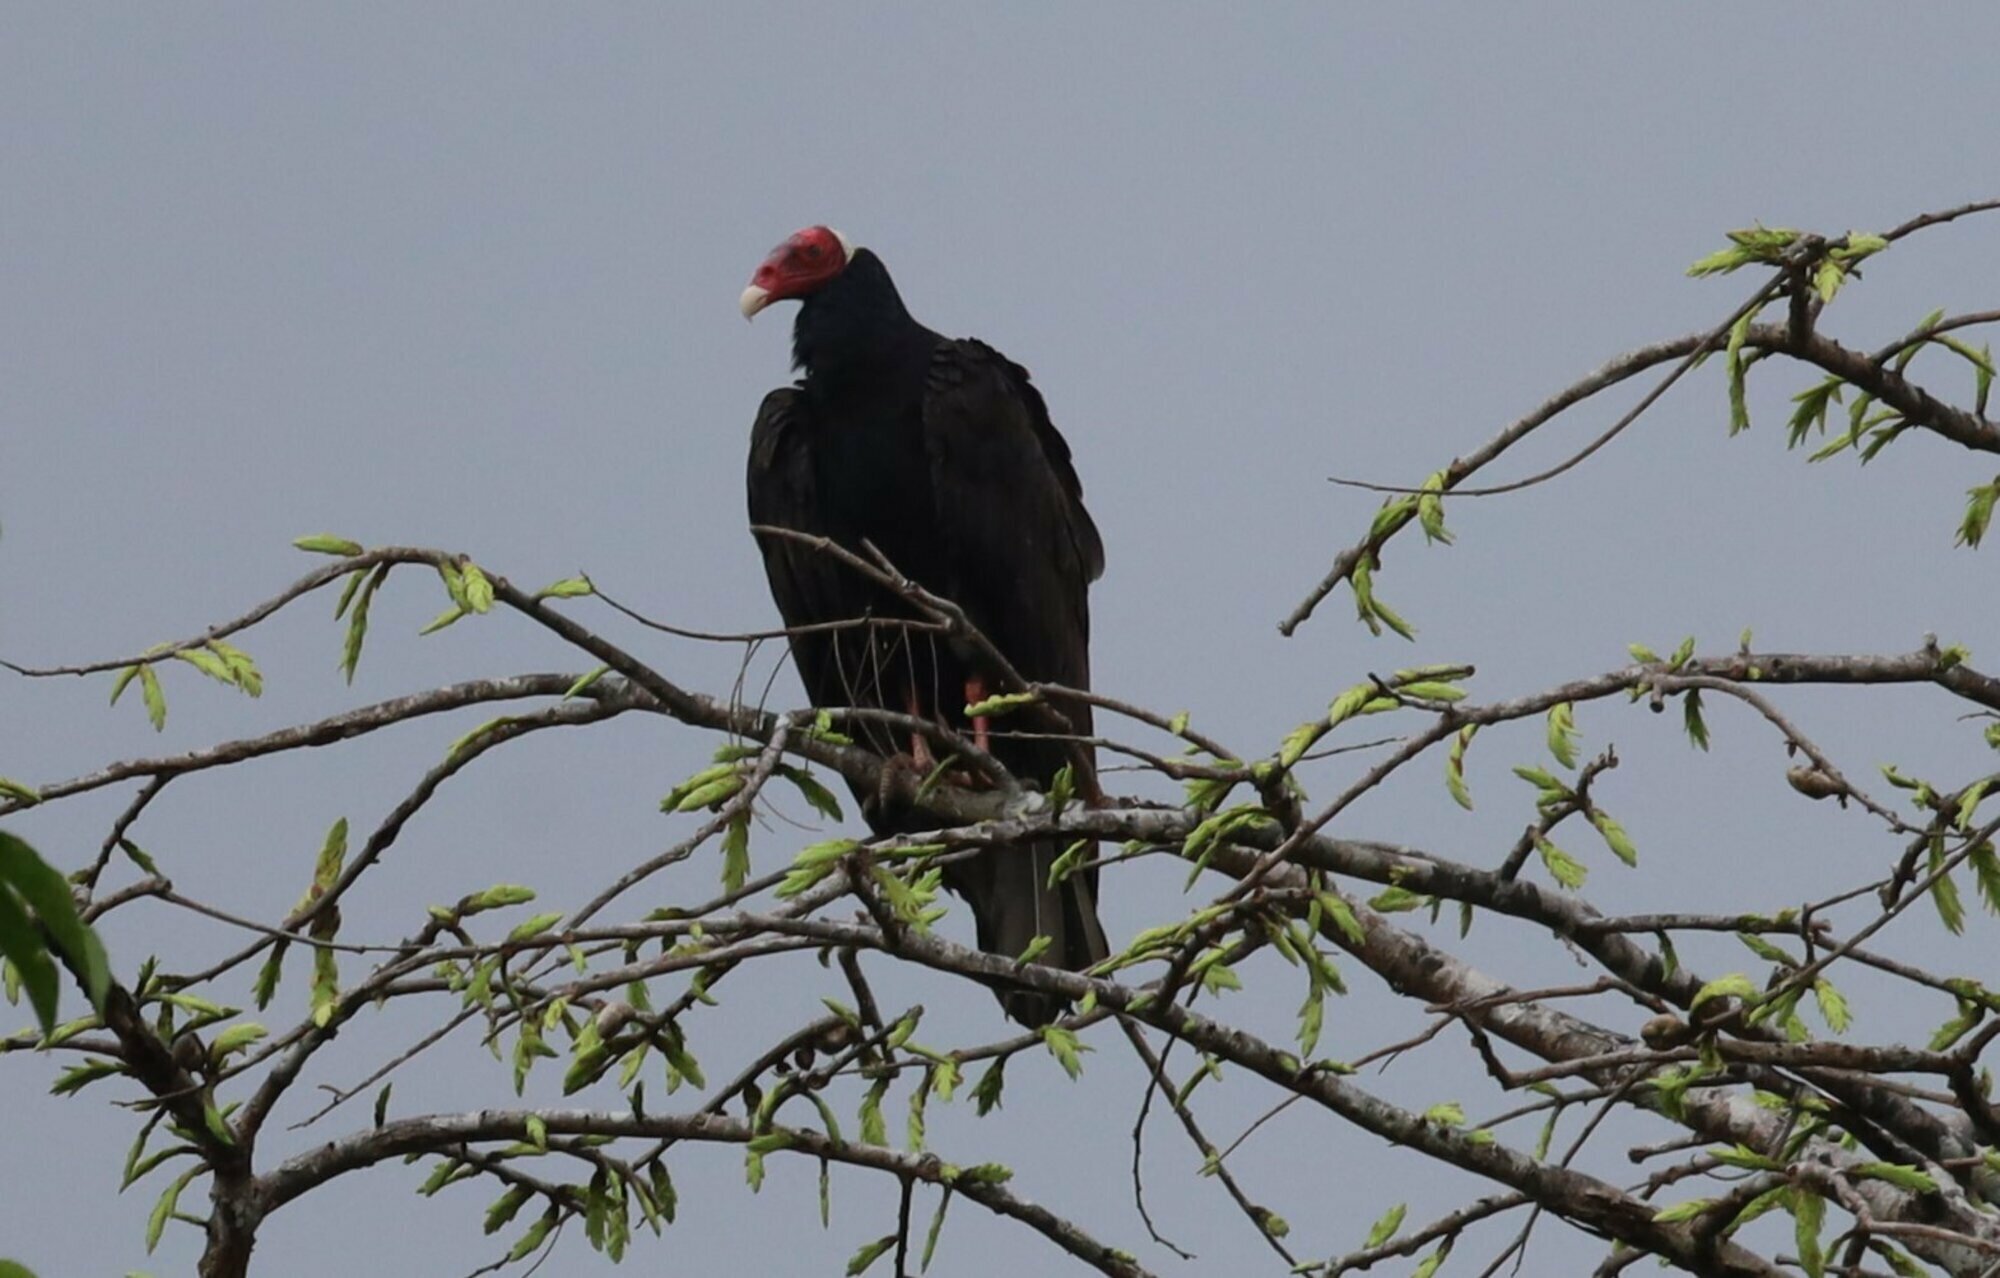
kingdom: Animalia
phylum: Chordata
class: Aves
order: Accipitriformes
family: Cathartidae
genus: Cathartes
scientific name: Cathartes aura
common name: Turkey vulture
